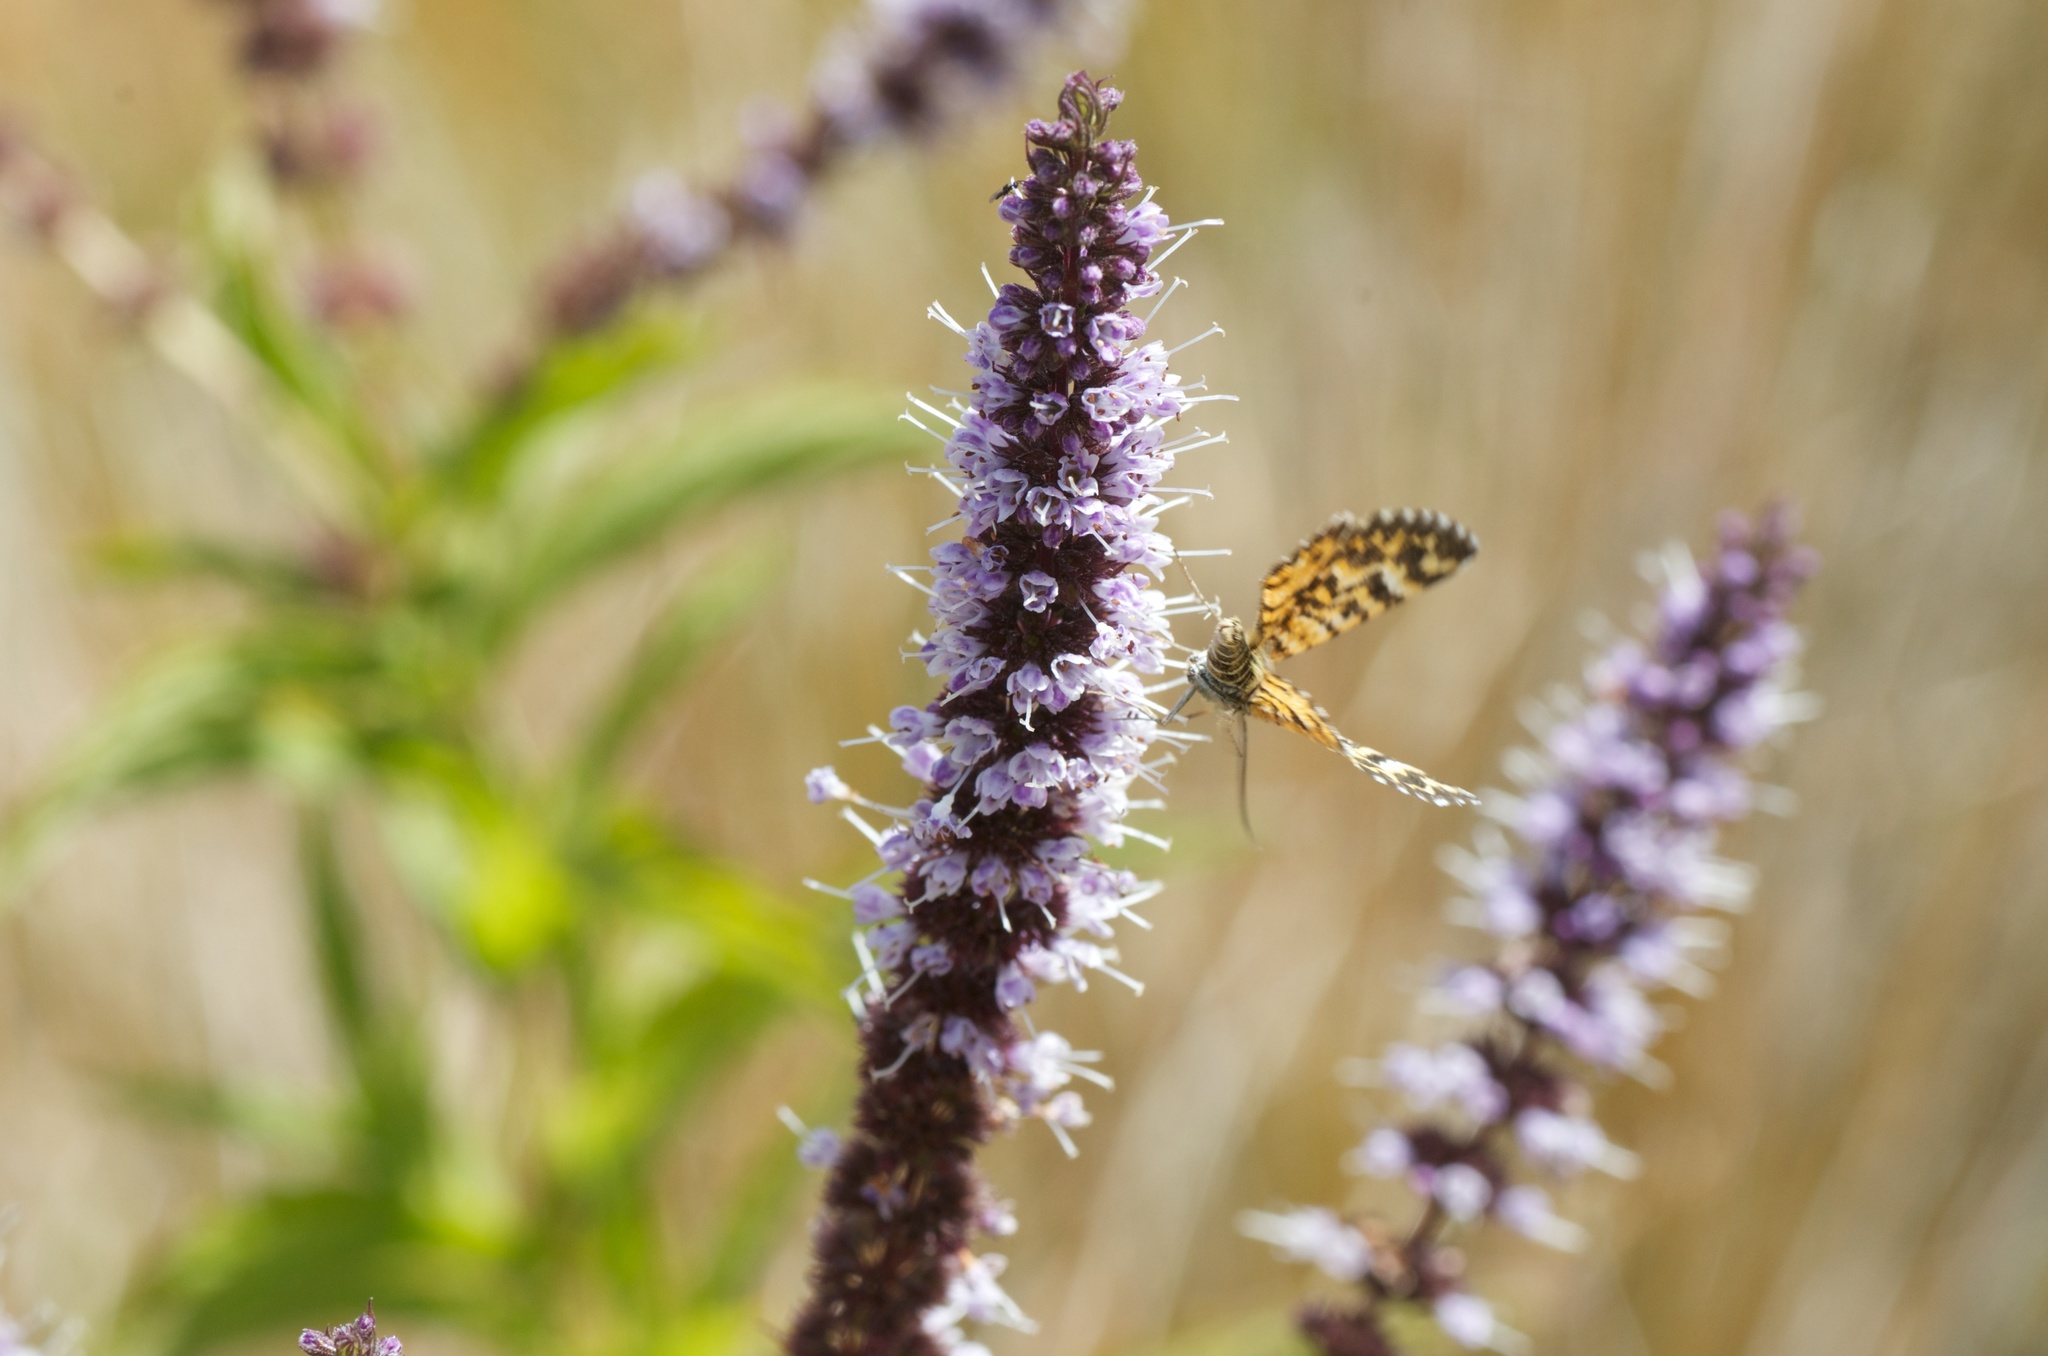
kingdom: Animalia
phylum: Arthropoda
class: Insecta
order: Lepidoptera
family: Geometridae
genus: Notoreas
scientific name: Notoreas simplex
